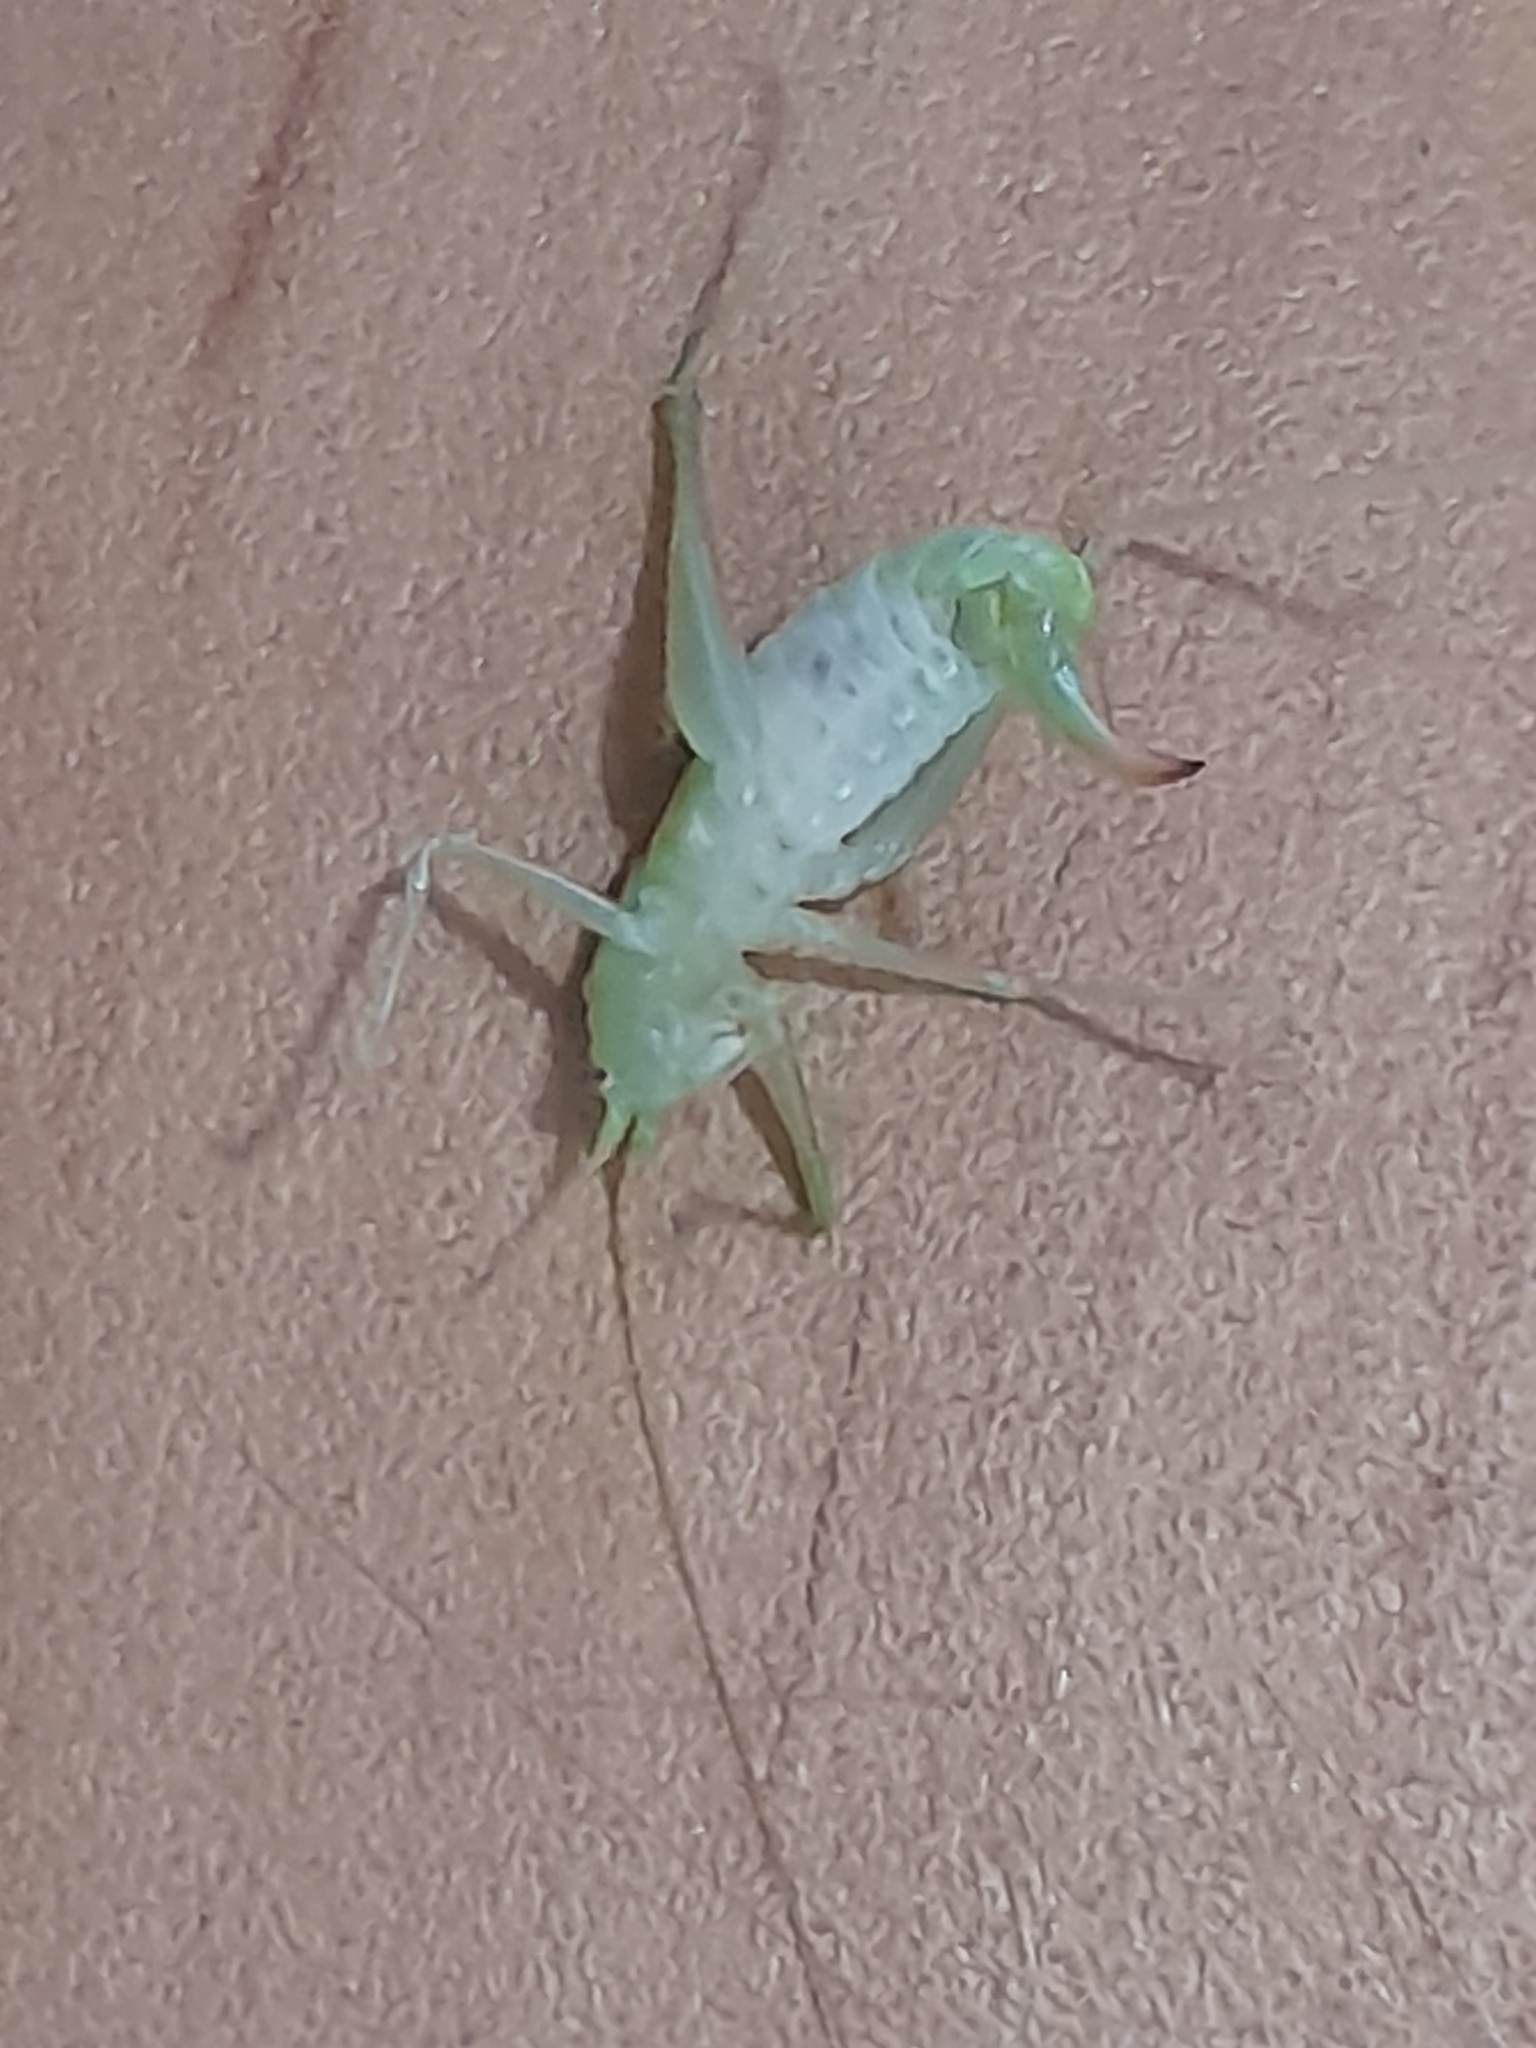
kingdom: Animalia
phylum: Arthropoda
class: Insecta
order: Orthoptera
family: Tettigoniidae
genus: Meconema
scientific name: Meconema meridionale
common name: Southern oak bush-cricket
